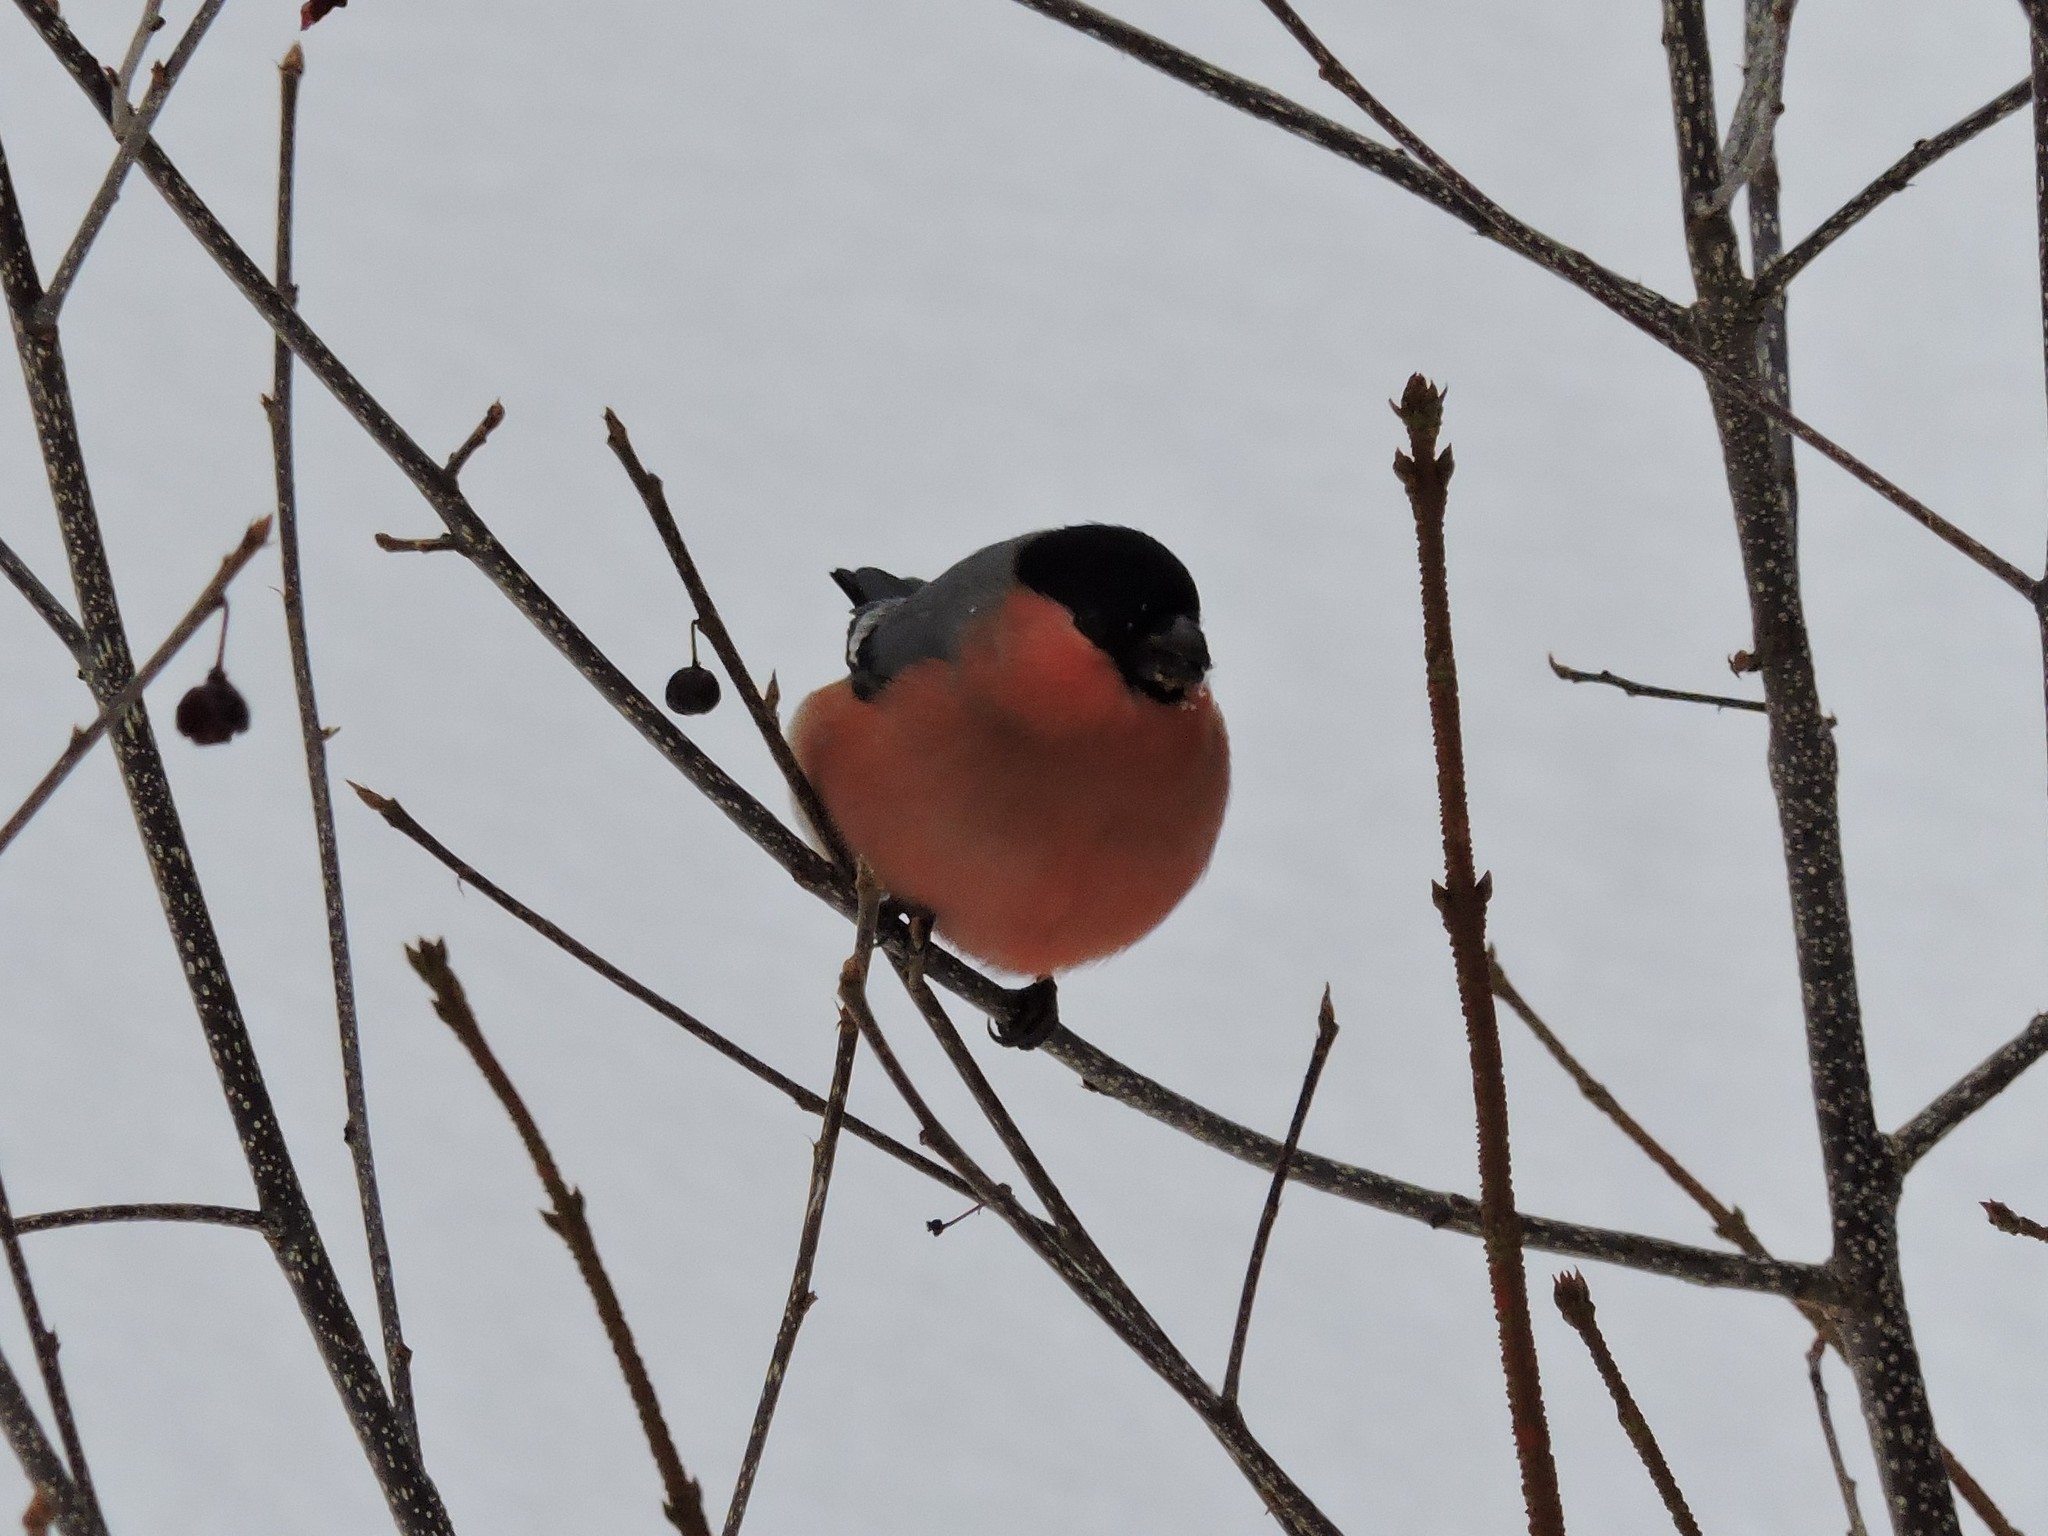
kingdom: Animalia
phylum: Chordata
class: Aves
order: Passeriformes
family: Fringillidae
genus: Pyrrhula
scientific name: Pyrrhula pyrrhula
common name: Eurasian bullfinch
